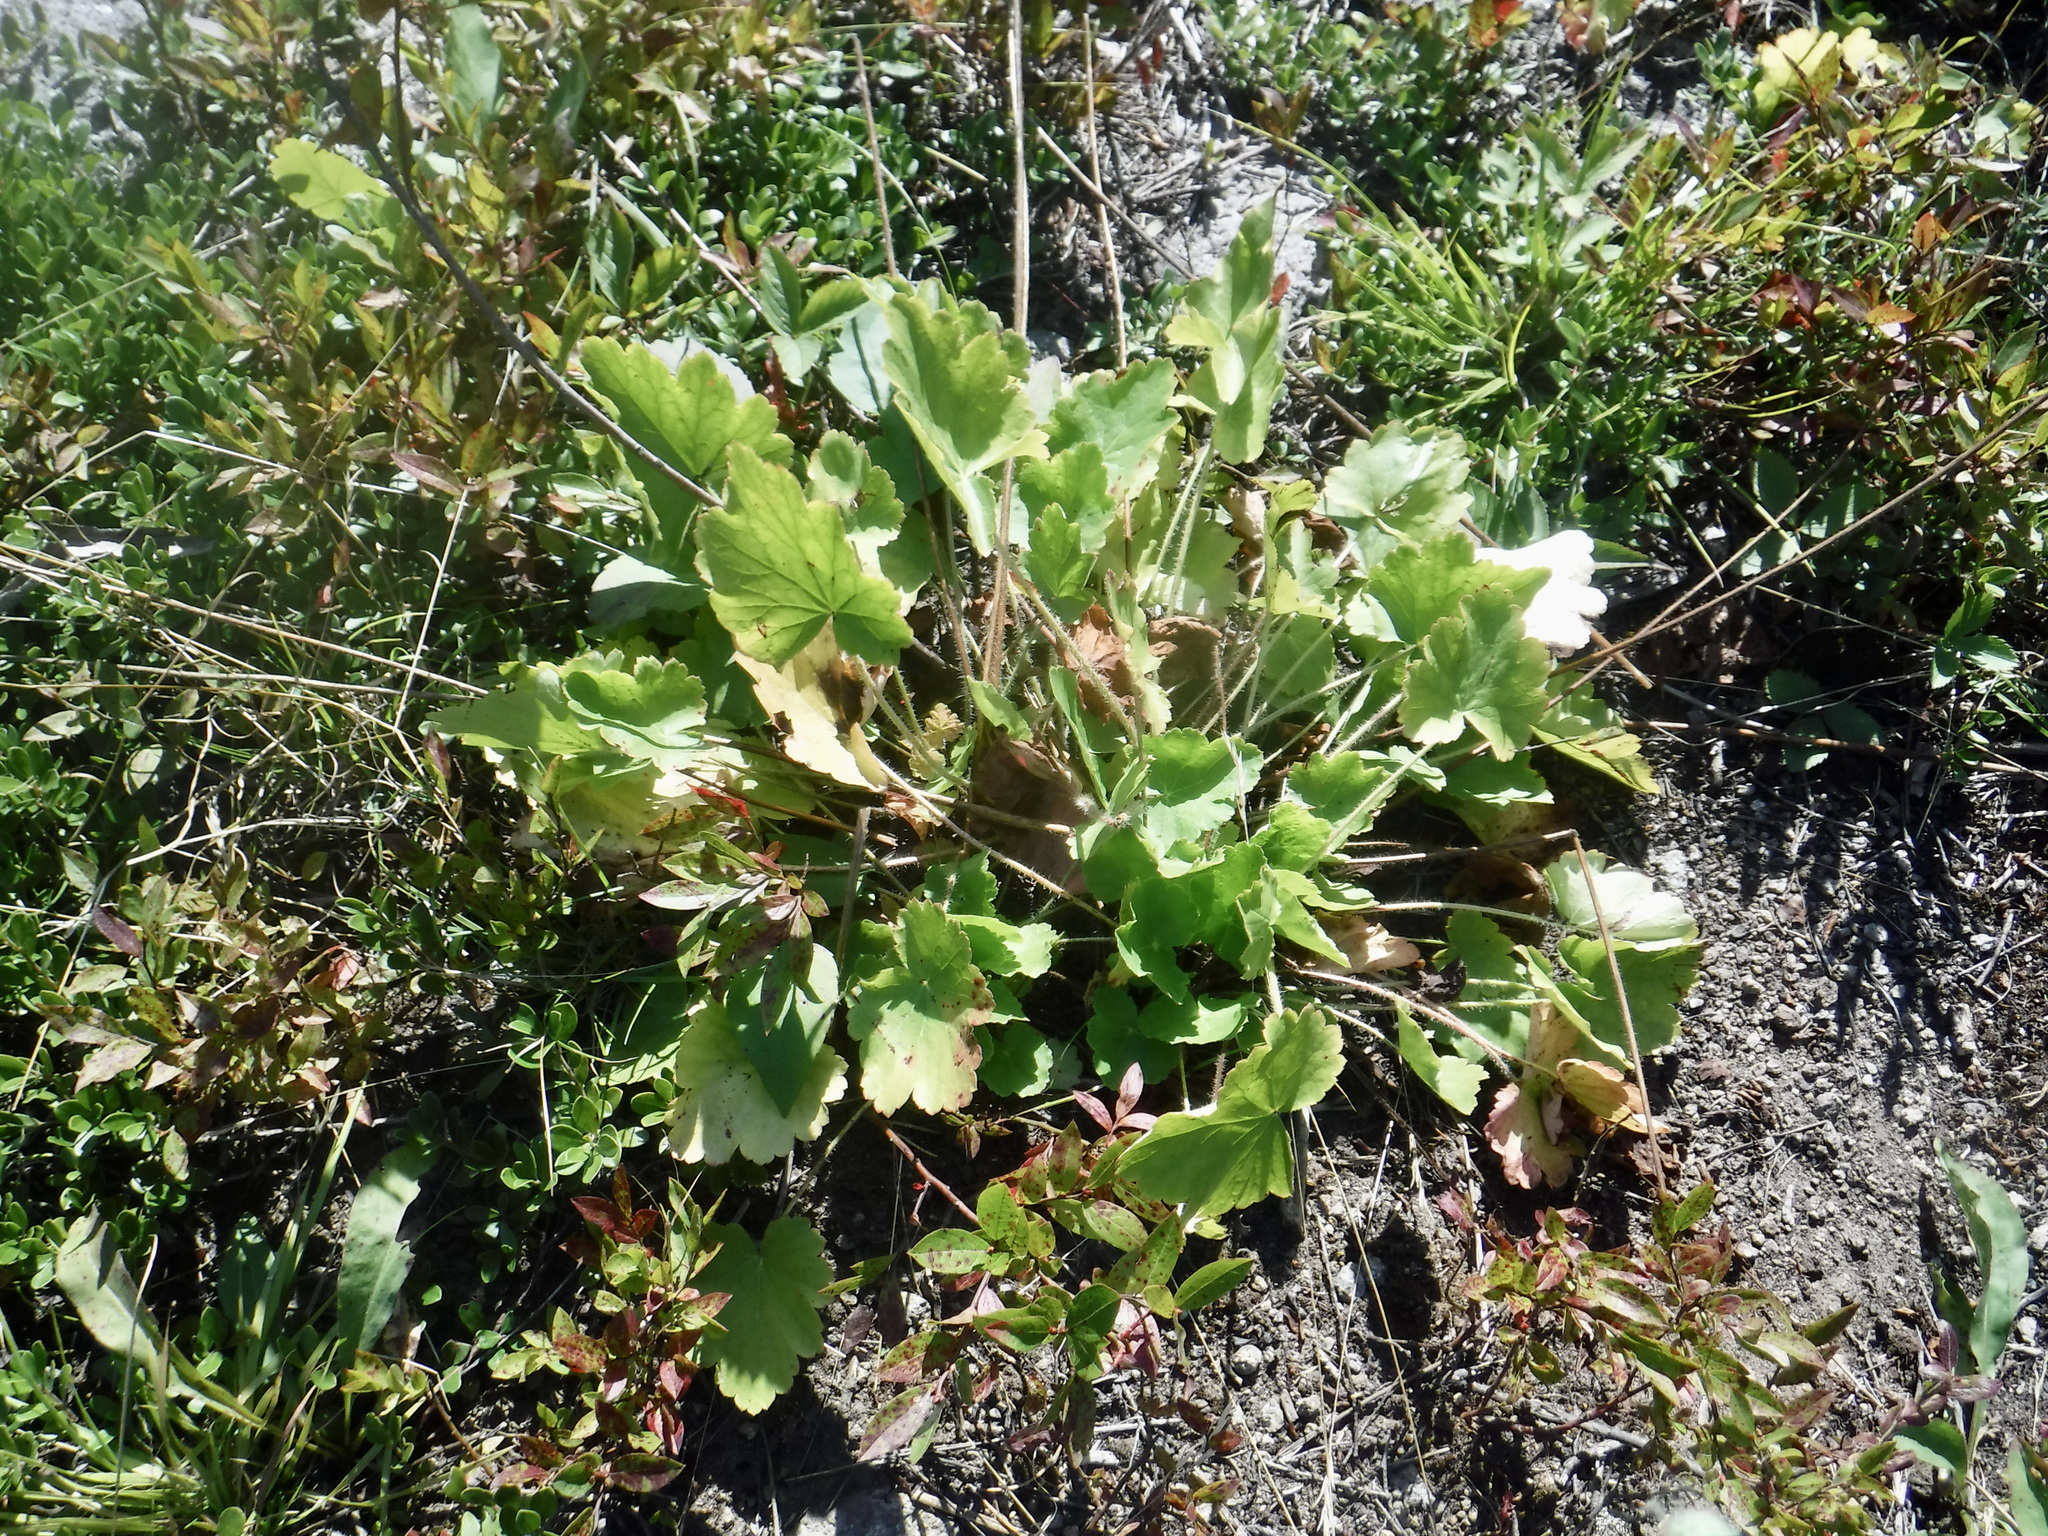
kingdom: Plantae
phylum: Tracheophyta
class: Magnoliopsida
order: Saxifragales
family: Saxifragaceae
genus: Heuchera
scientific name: Heuchera richardsonii
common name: Richardson's alumroot
